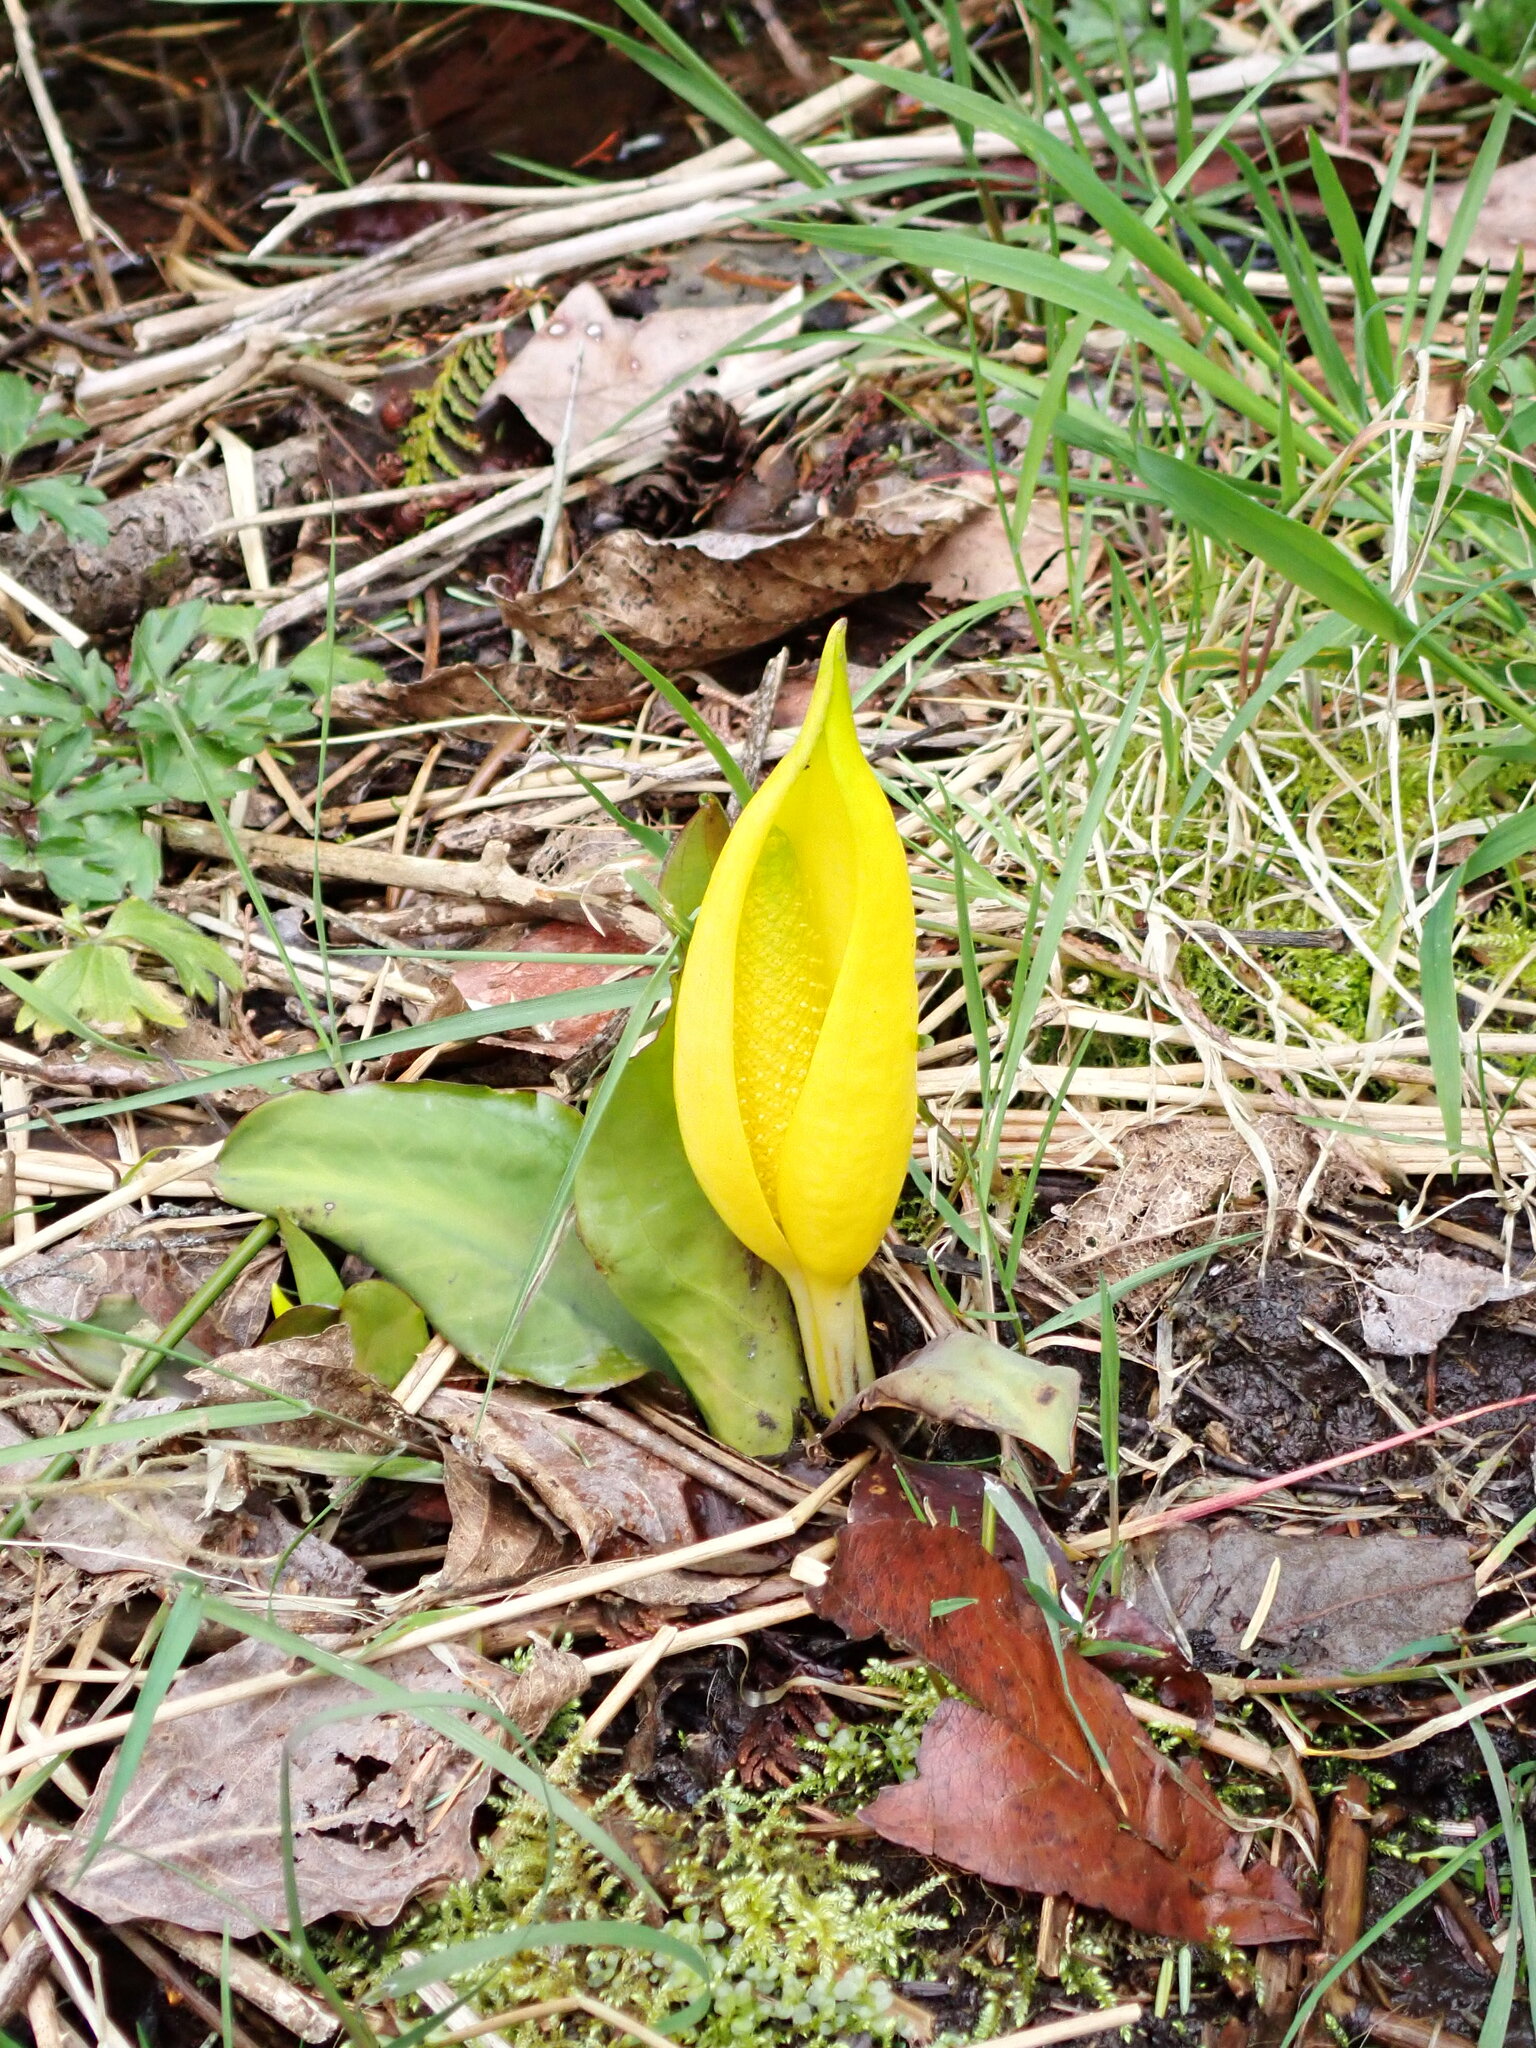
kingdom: Plantae
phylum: Tracheophyta
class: Liliopsida
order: Alismatales
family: Araceae
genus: Lysichiton
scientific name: Lysichiton americanus
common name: American skunk cabbage
